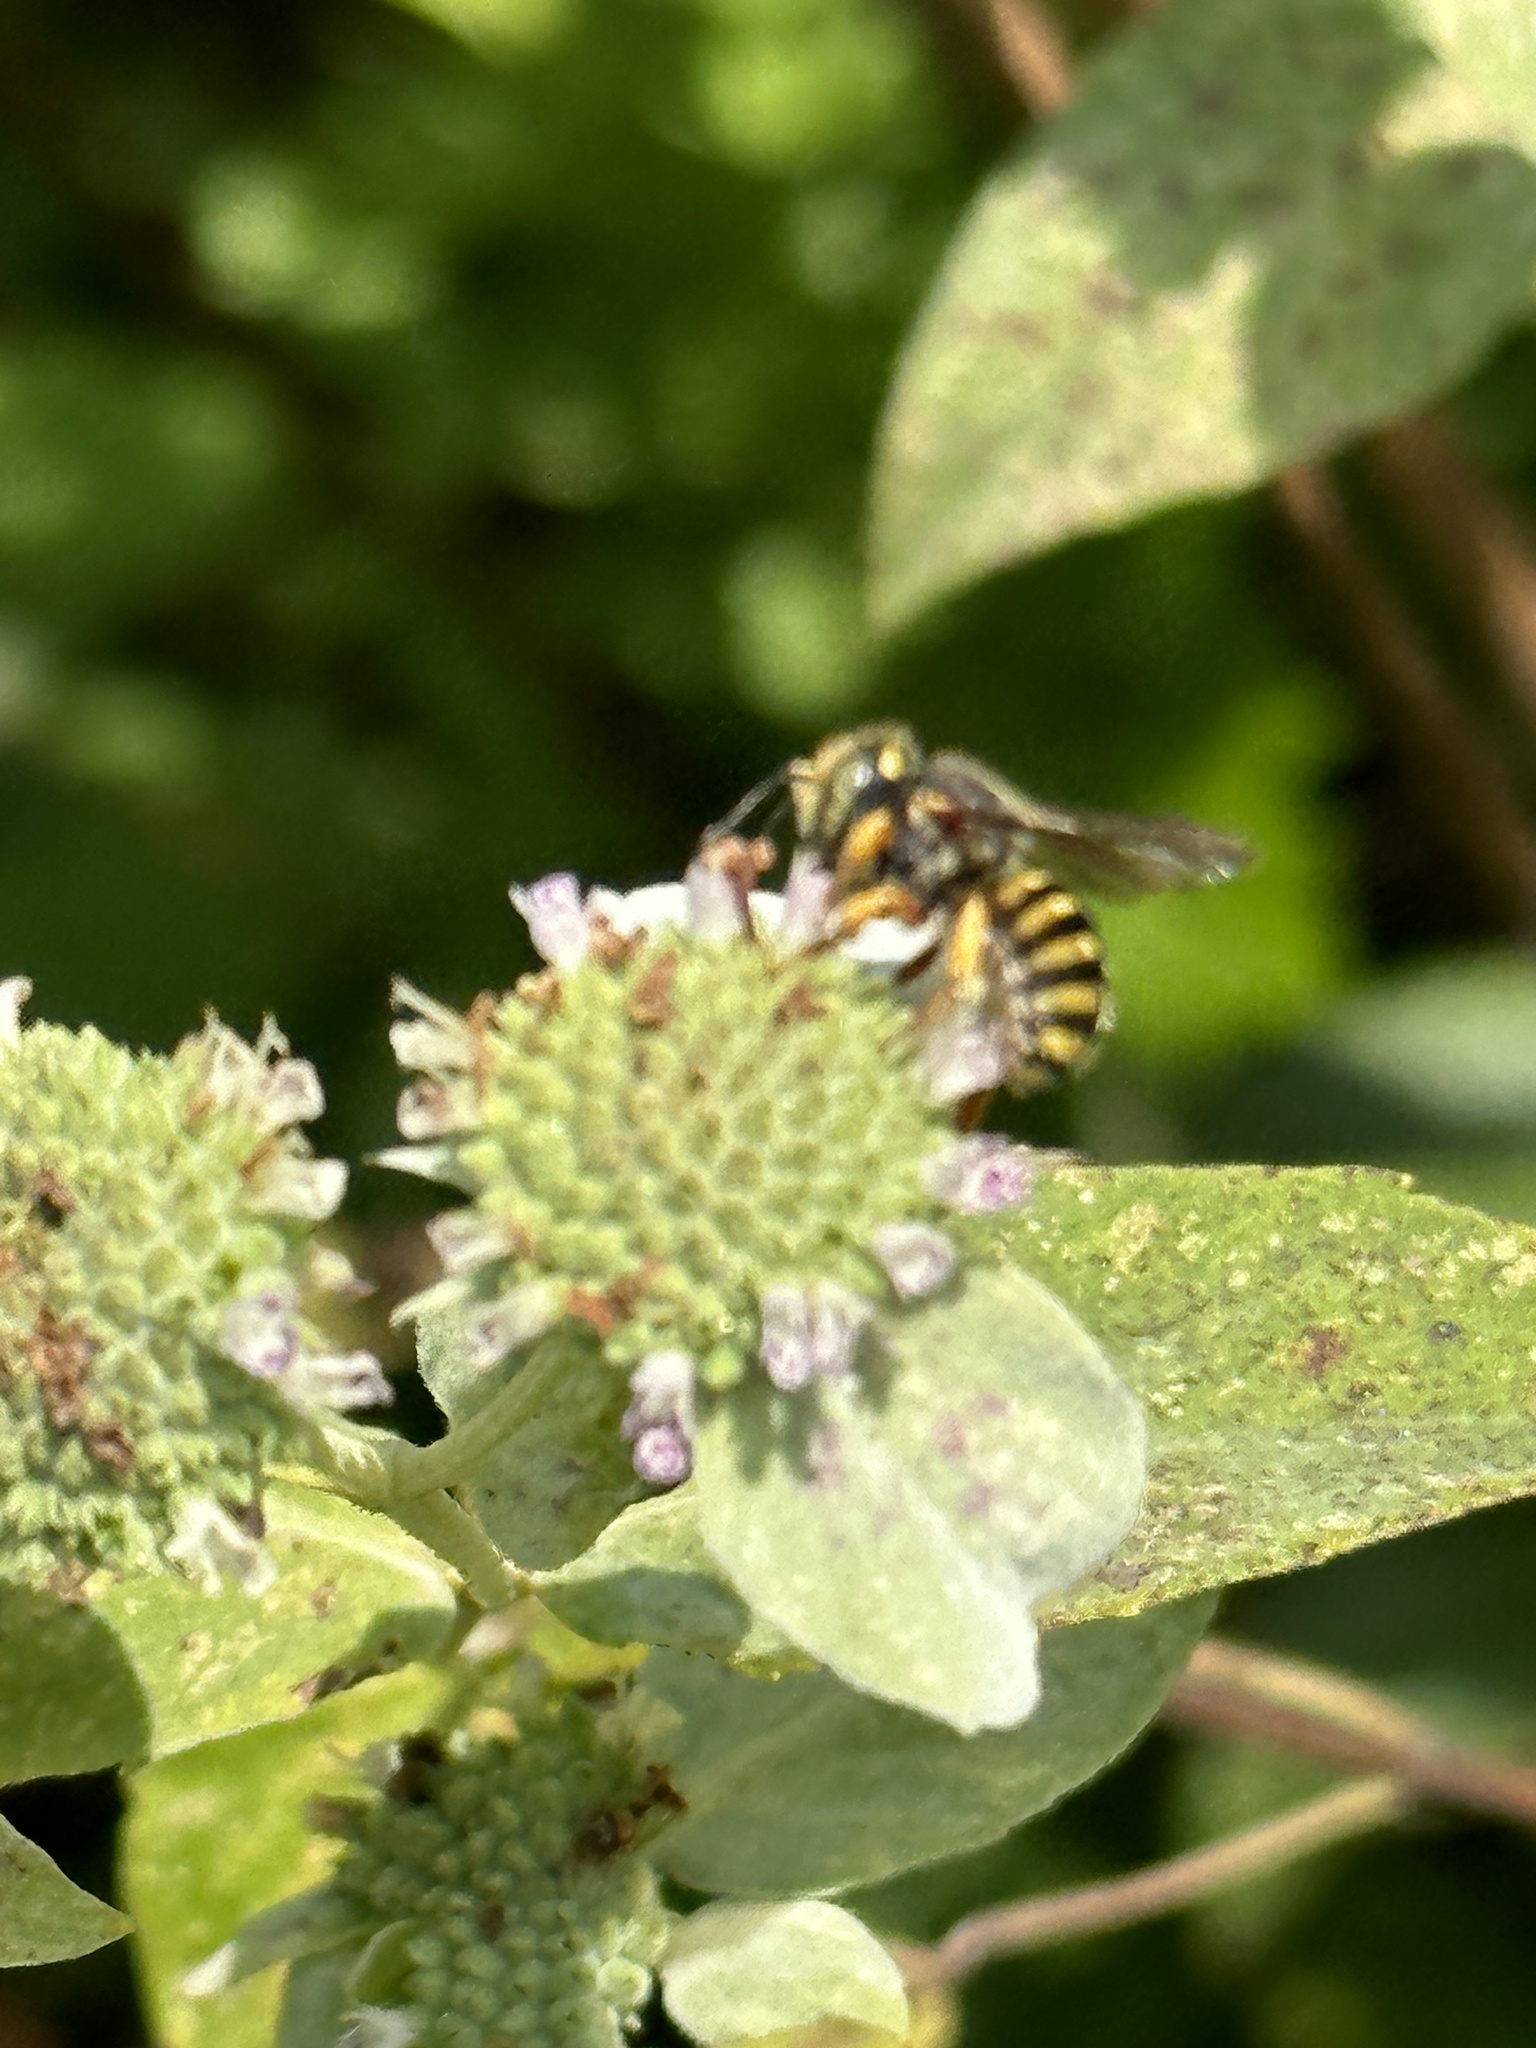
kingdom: Animalia
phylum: Arthropoda
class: Insecta
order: Hymenoptera
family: Megachilidae
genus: Anthidium
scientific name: Anthidium oblongatum
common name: Oblong wool carder bee
